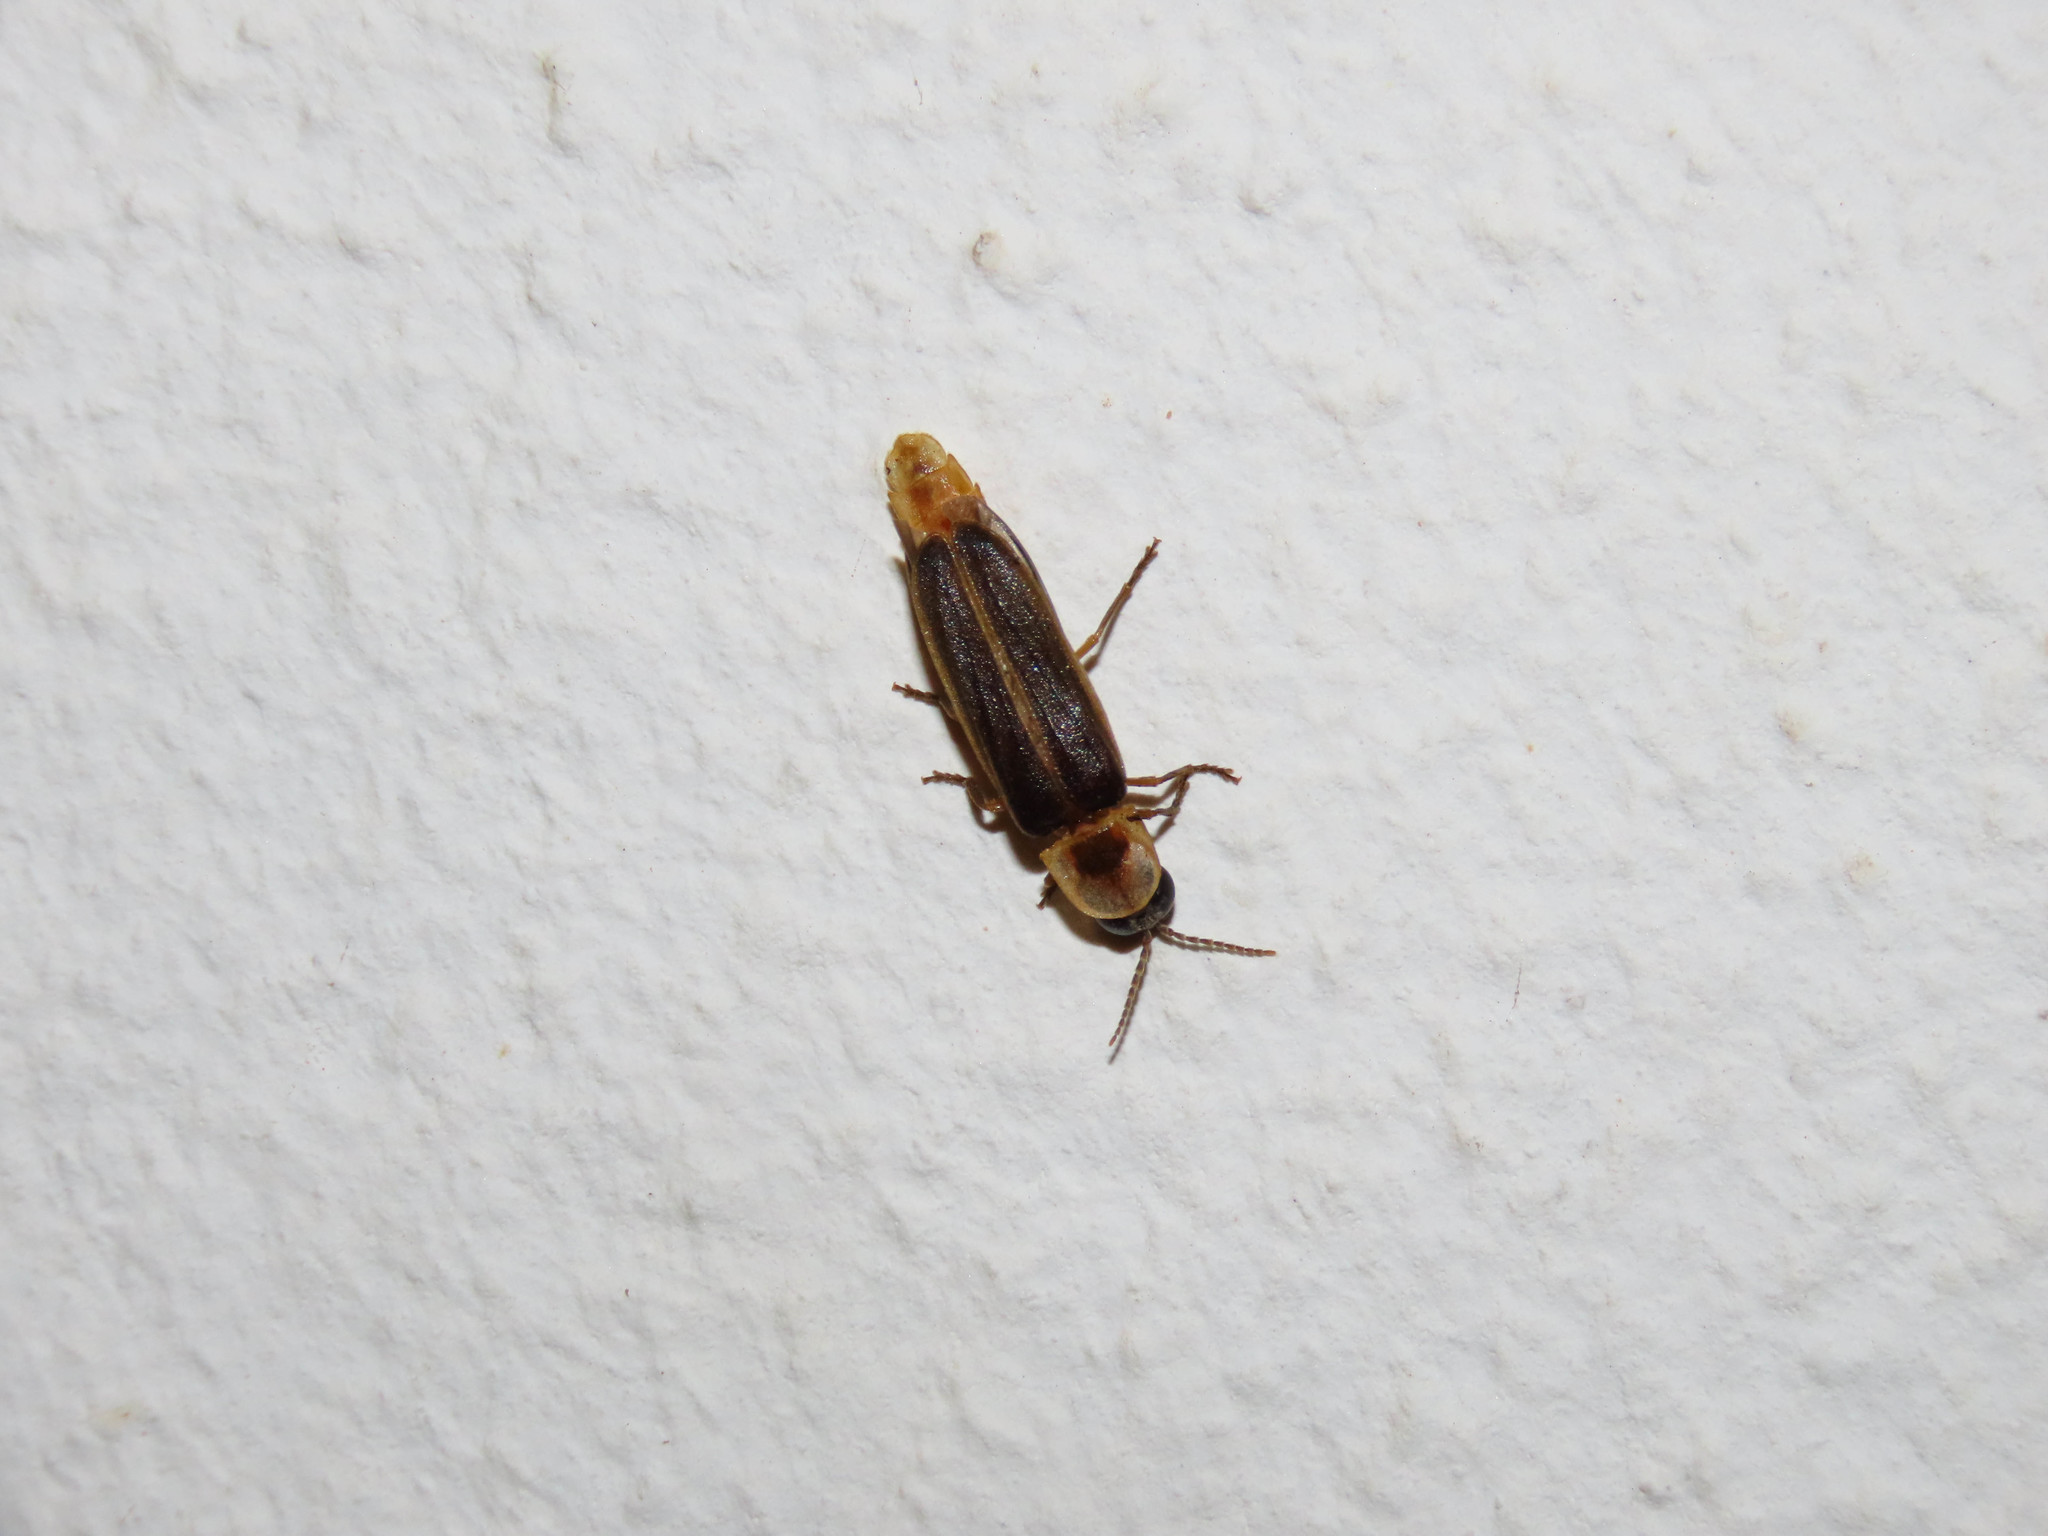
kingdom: Animalia
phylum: Arthropoda
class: Insecta
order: Coleoptera
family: Lampyridae
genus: Lampyris
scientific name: Lampyris sardiniae
